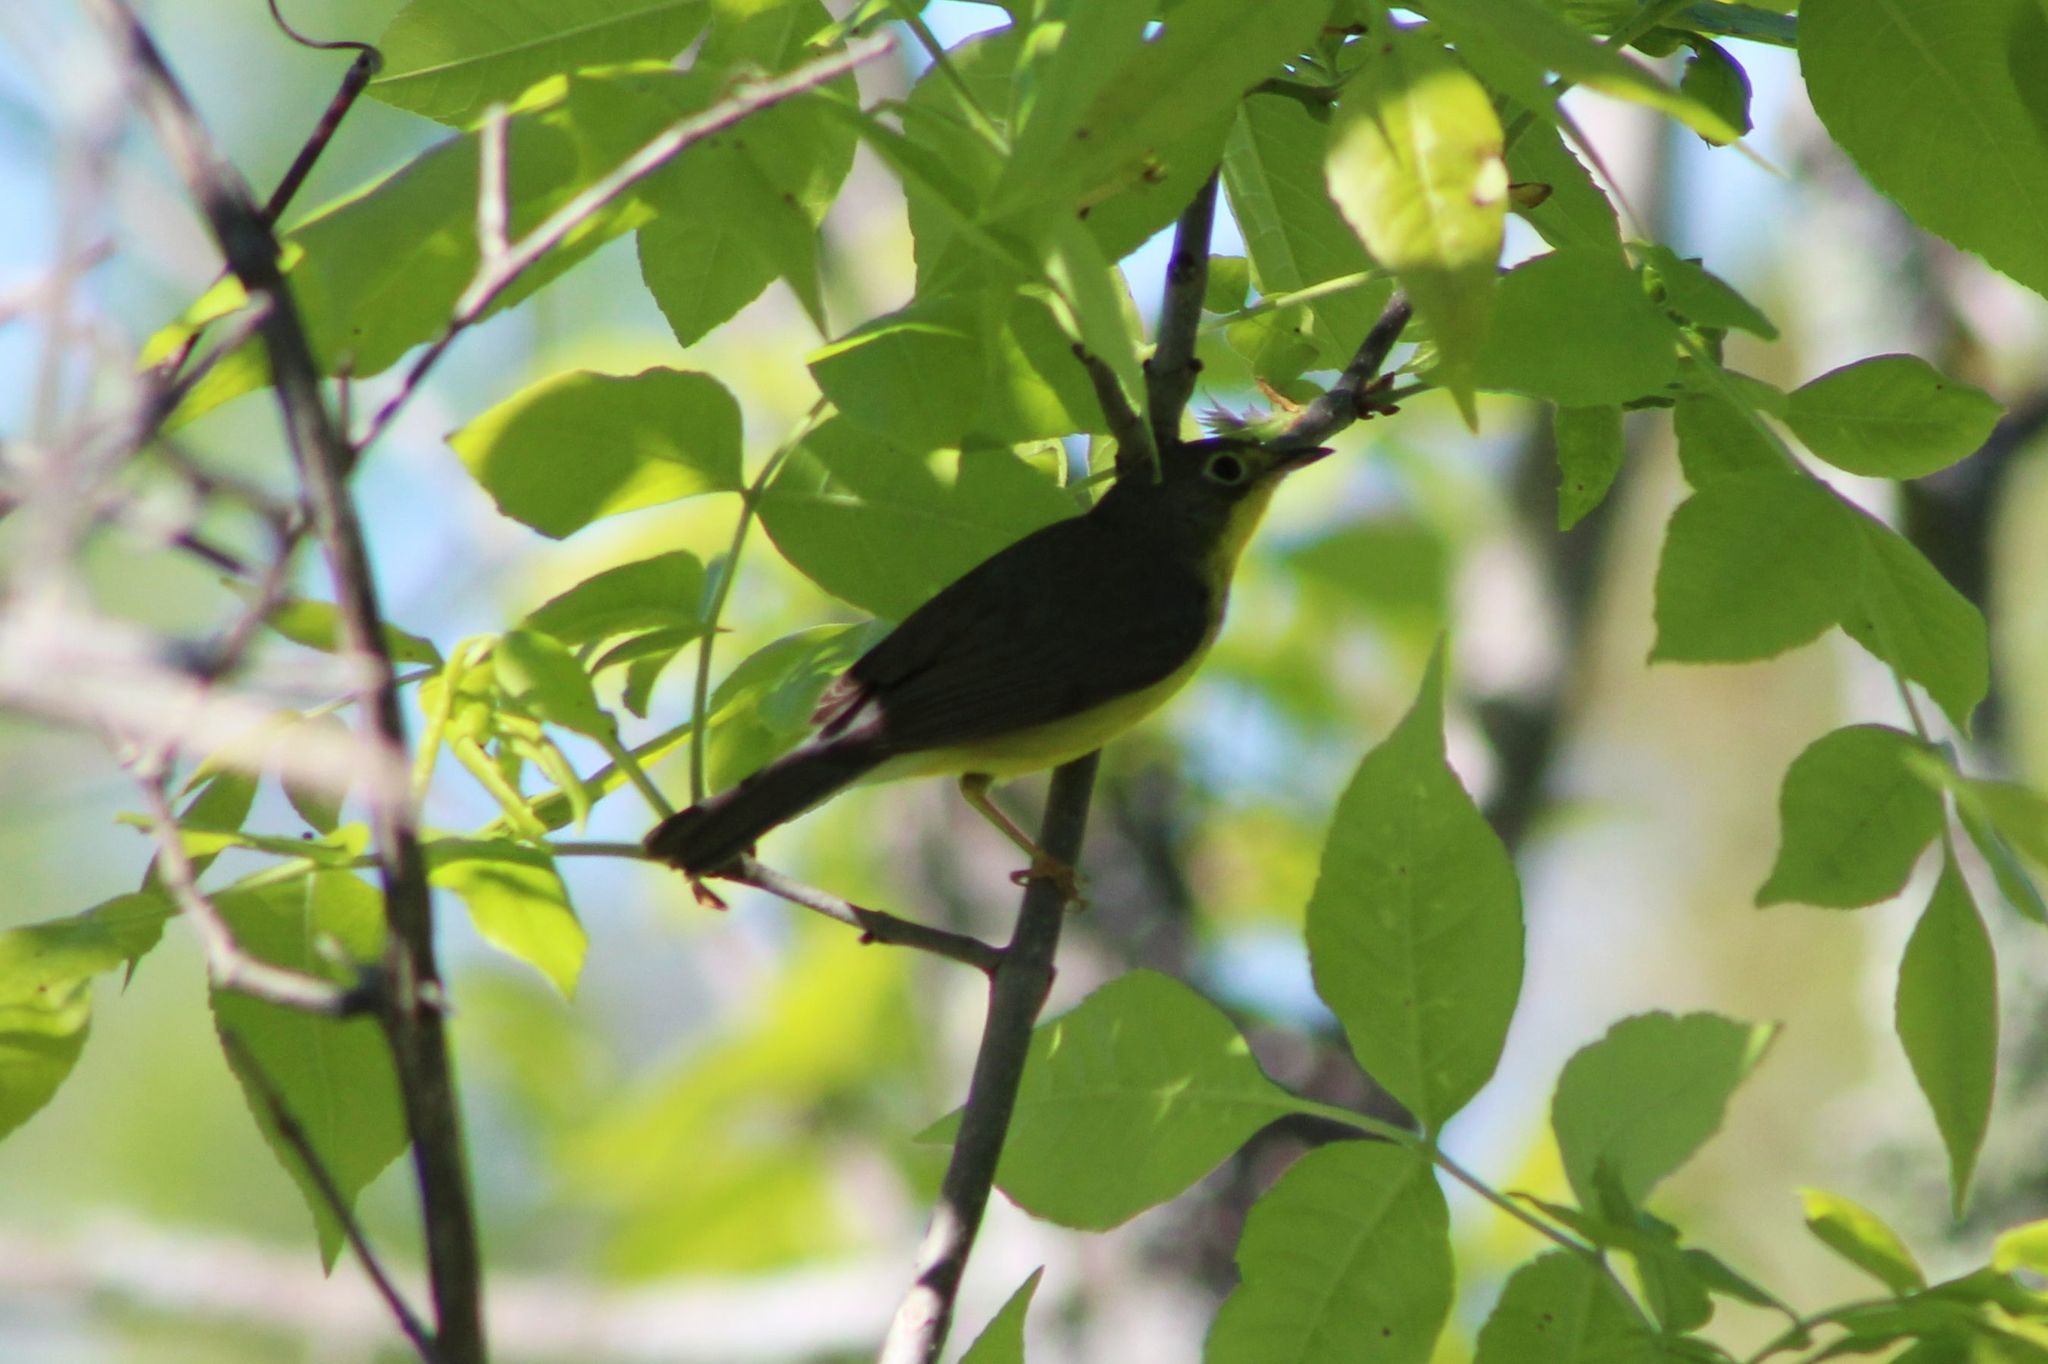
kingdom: Animalia
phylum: Chordata
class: Aves
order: Passeriformes
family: Parulidae
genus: Cardellina
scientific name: Cardellina canadensis
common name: Canada warbler
